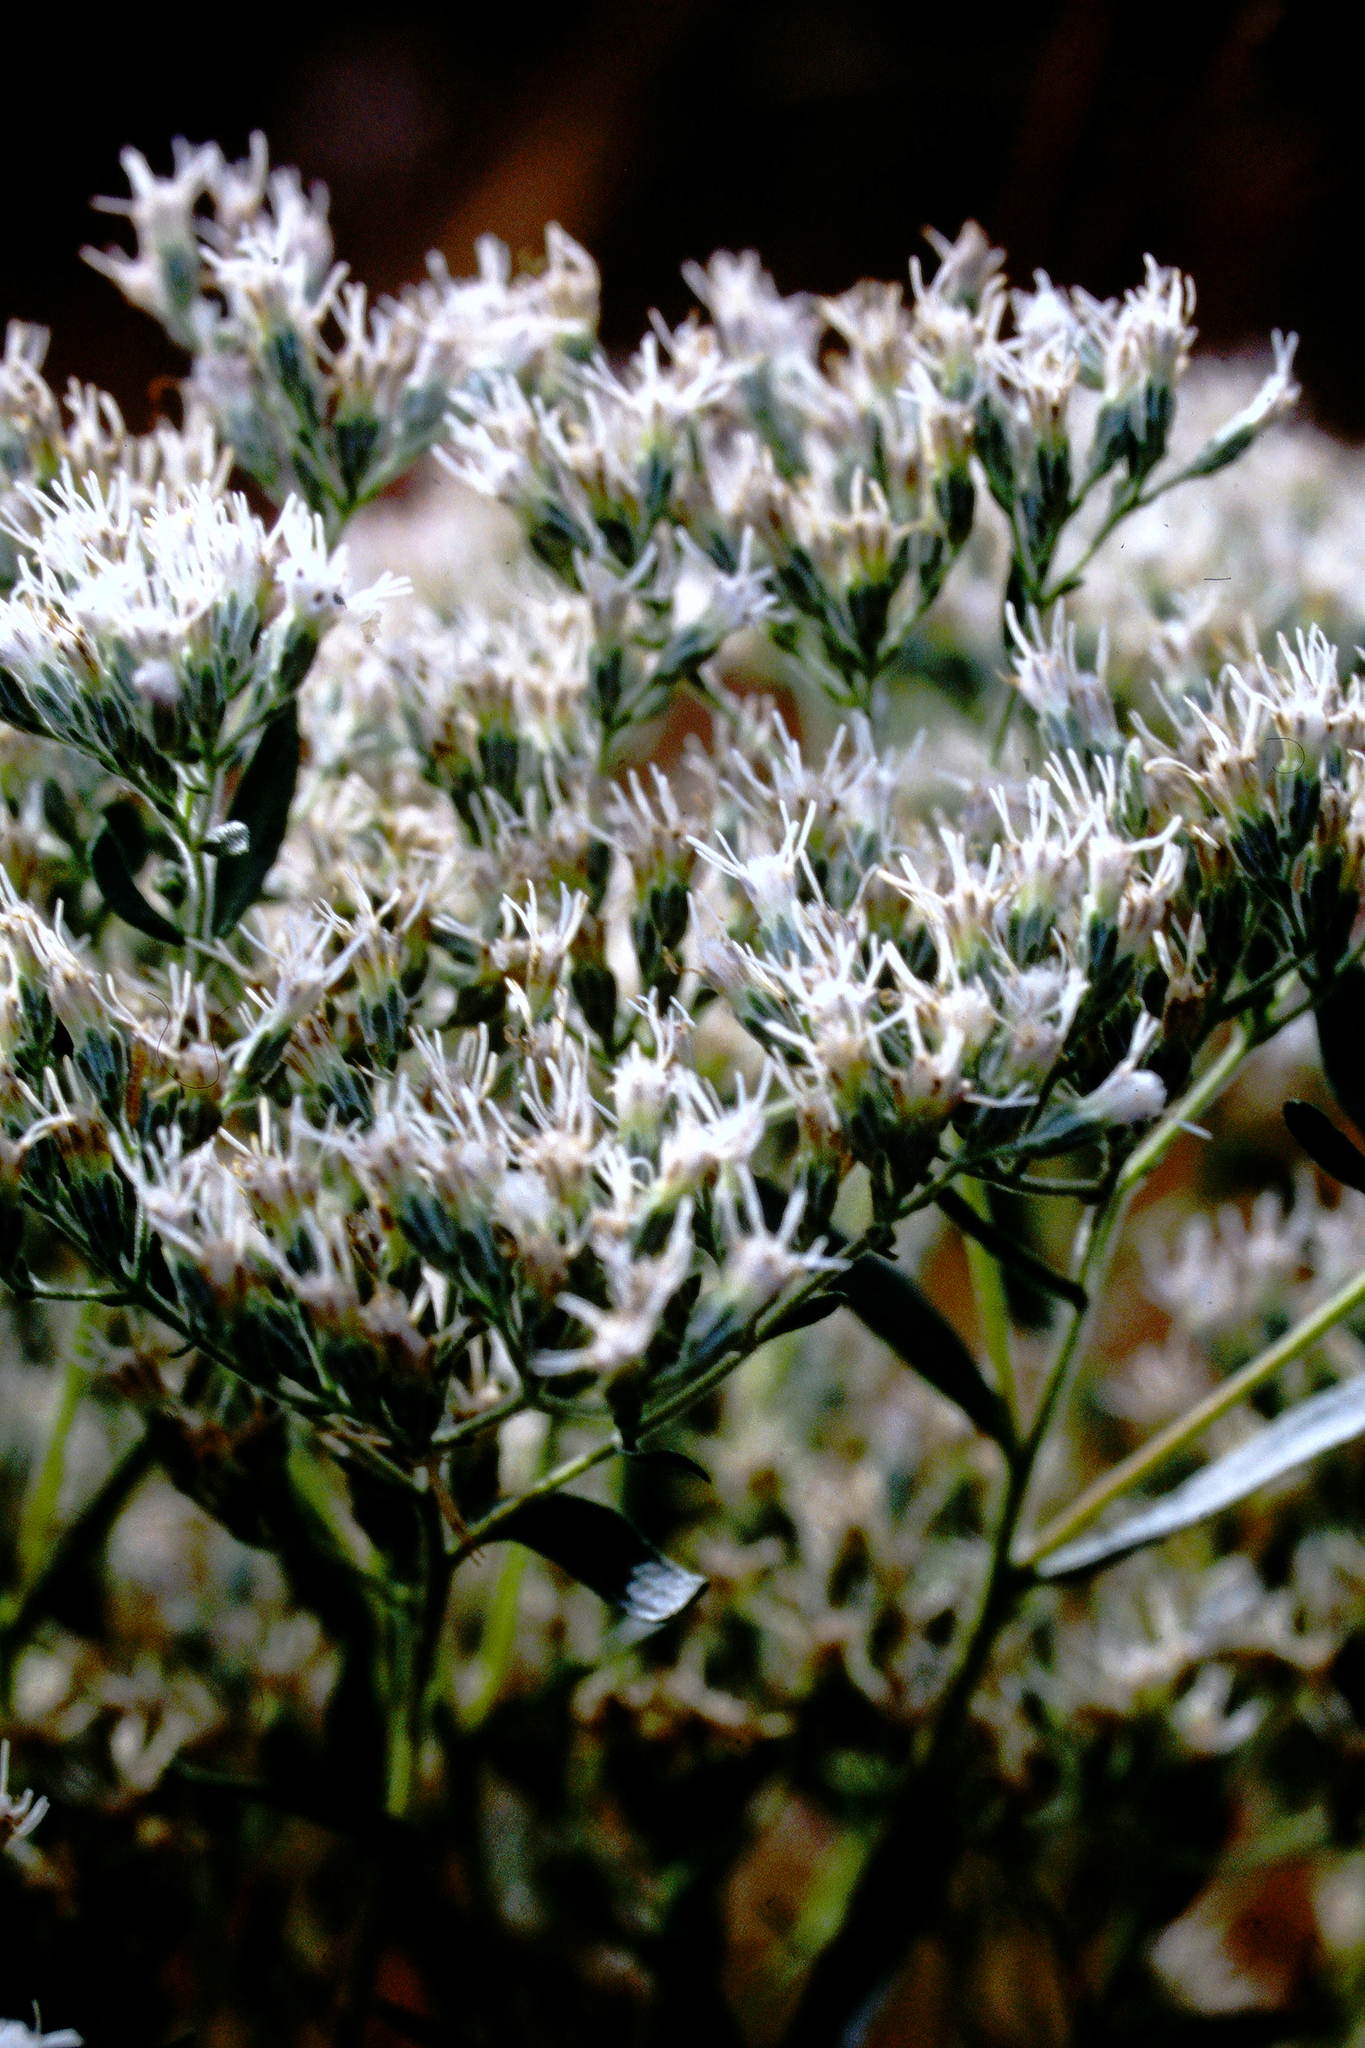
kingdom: Plantae
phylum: Tracheophyta
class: Magnoliopsida
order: Asterales
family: Asteraceae
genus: Eupatorium
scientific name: Eupatorium altissimum
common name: Tall thoroughwort
